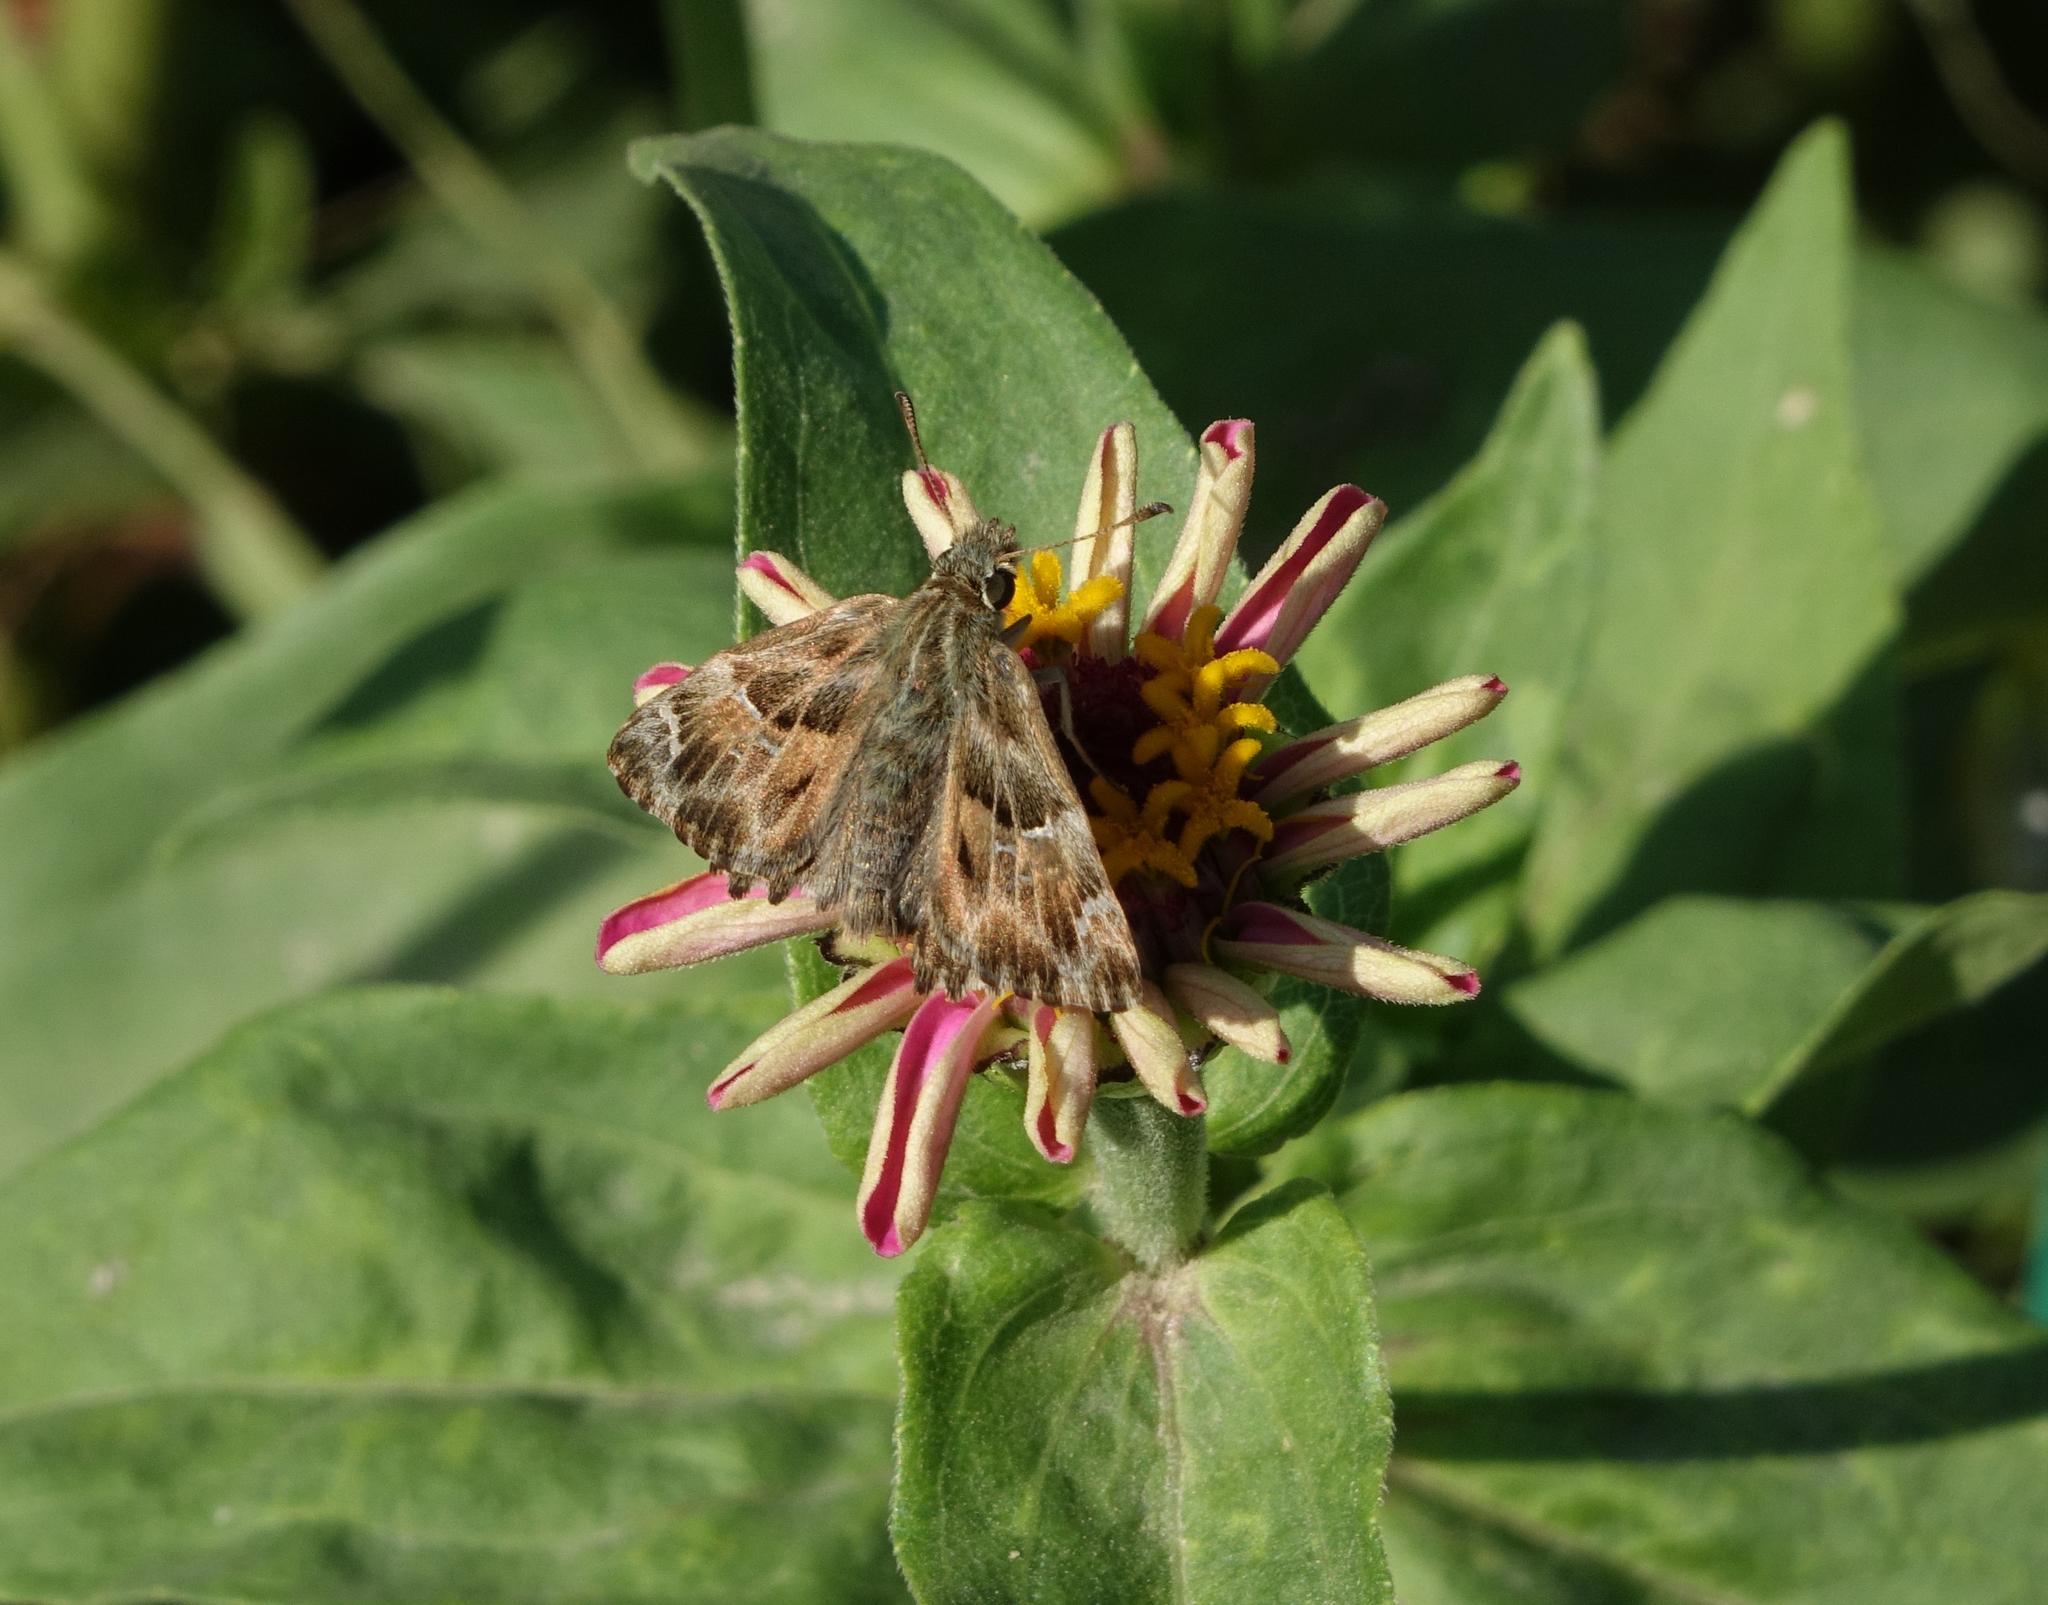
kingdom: Animalia
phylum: Arthropoda
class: Insecta
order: Lepidoptera
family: Hesperiidae
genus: Carcharodus
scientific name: Carcharodus alceae
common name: Mallow skipper
